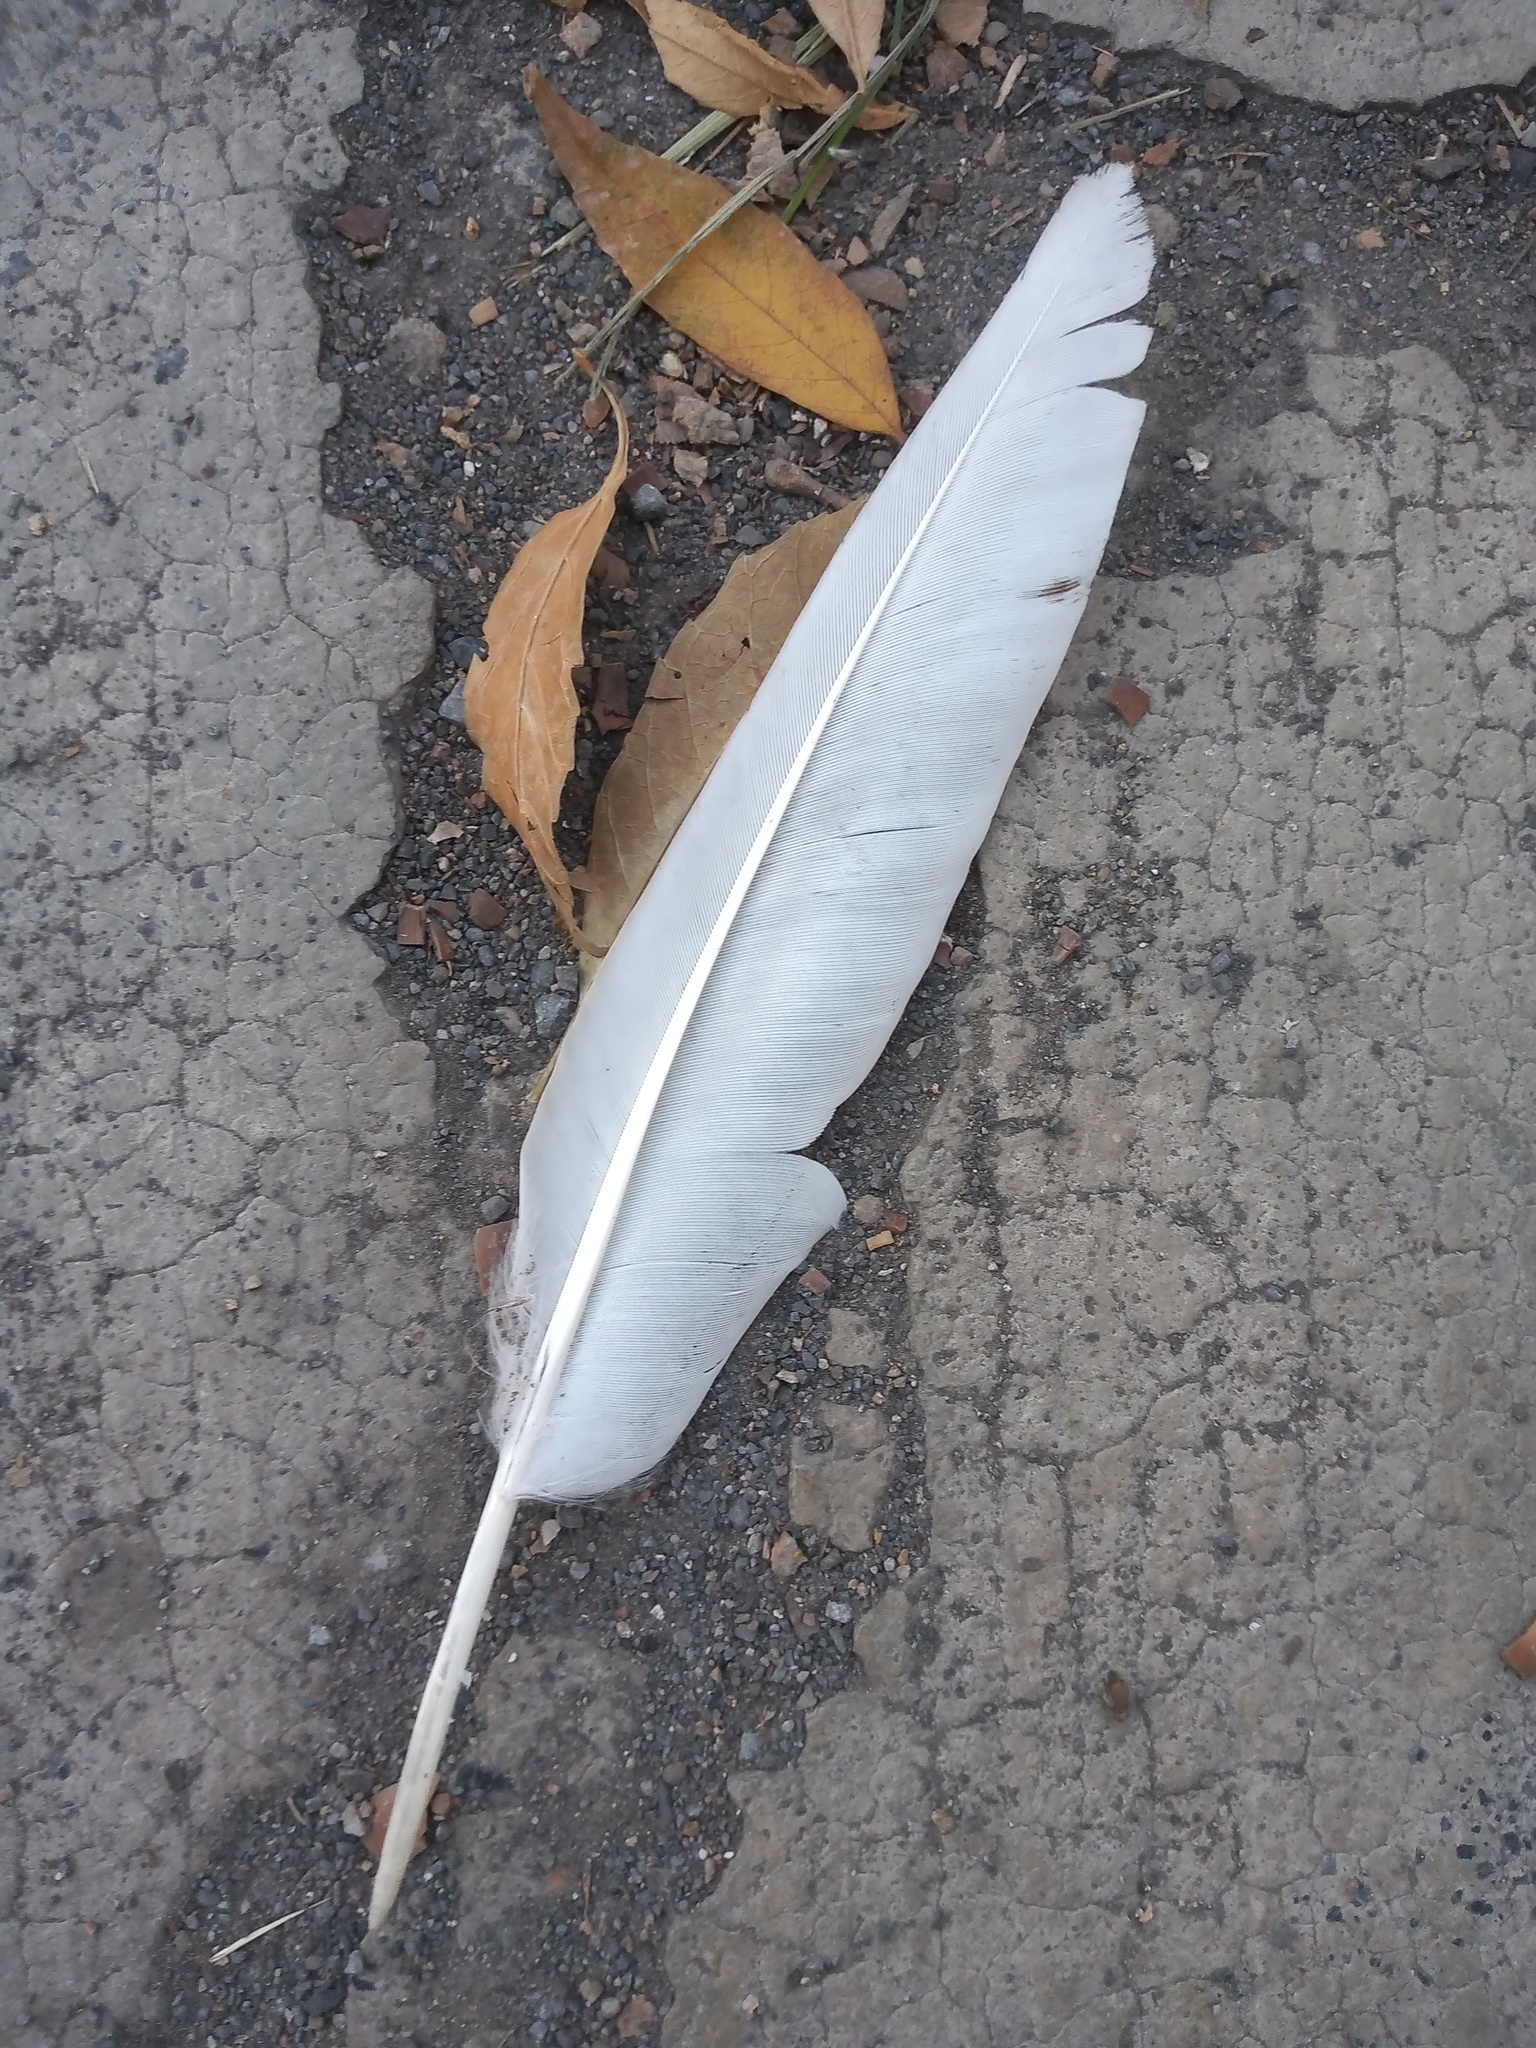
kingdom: Animalia
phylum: Chordata
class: Aves
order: Columbiformes
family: Columbidae
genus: Columba
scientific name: Columba livia
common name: Rock pigeon
